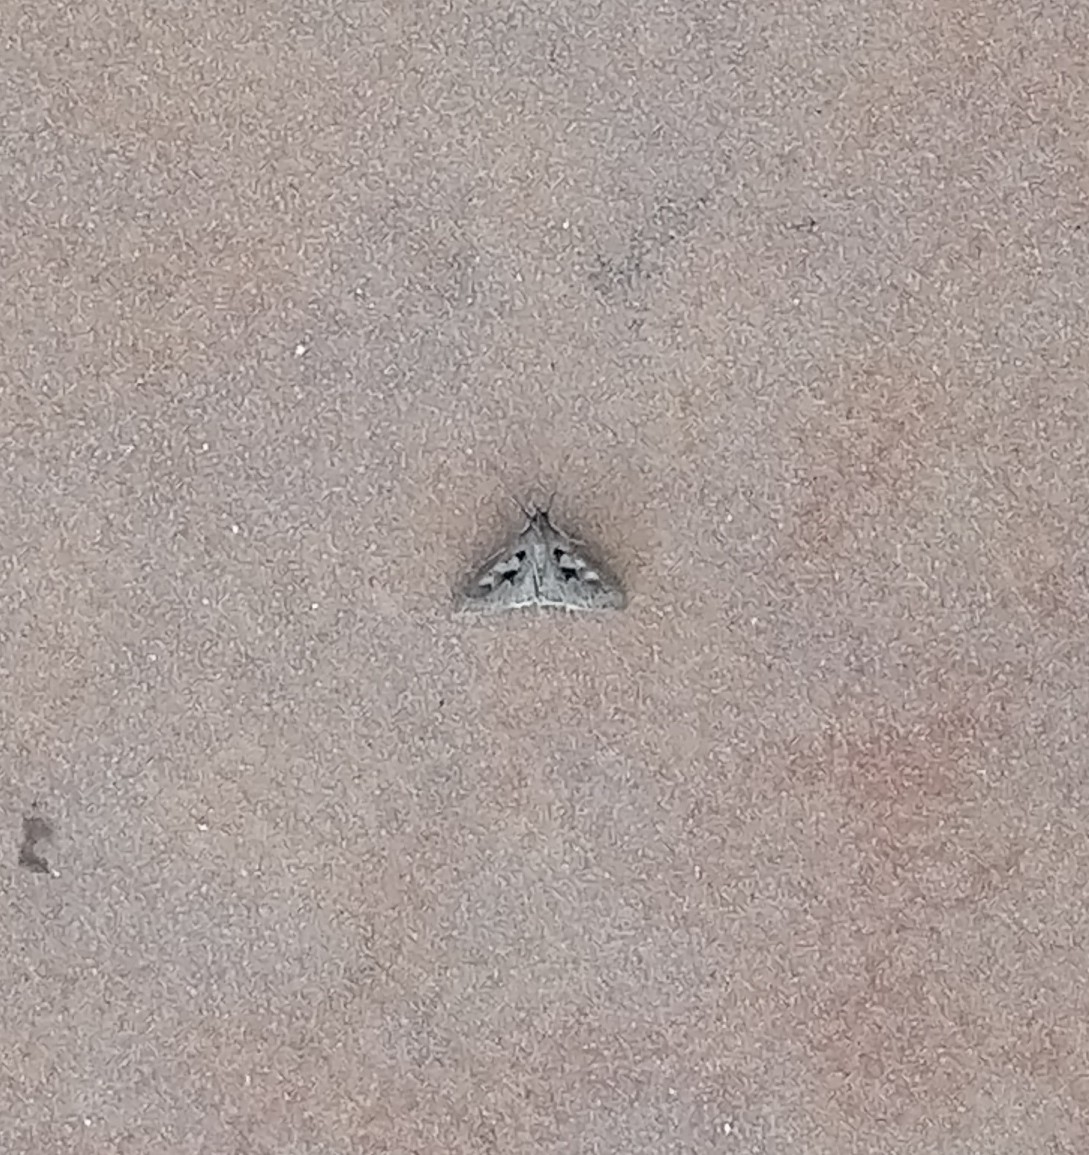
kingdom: Animalia
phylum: Arthropoda
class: Insecta
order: Lepidoptera
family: Crambidae
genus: Mecyna
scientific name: Mecyna asinalis
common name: Coastal pearl
